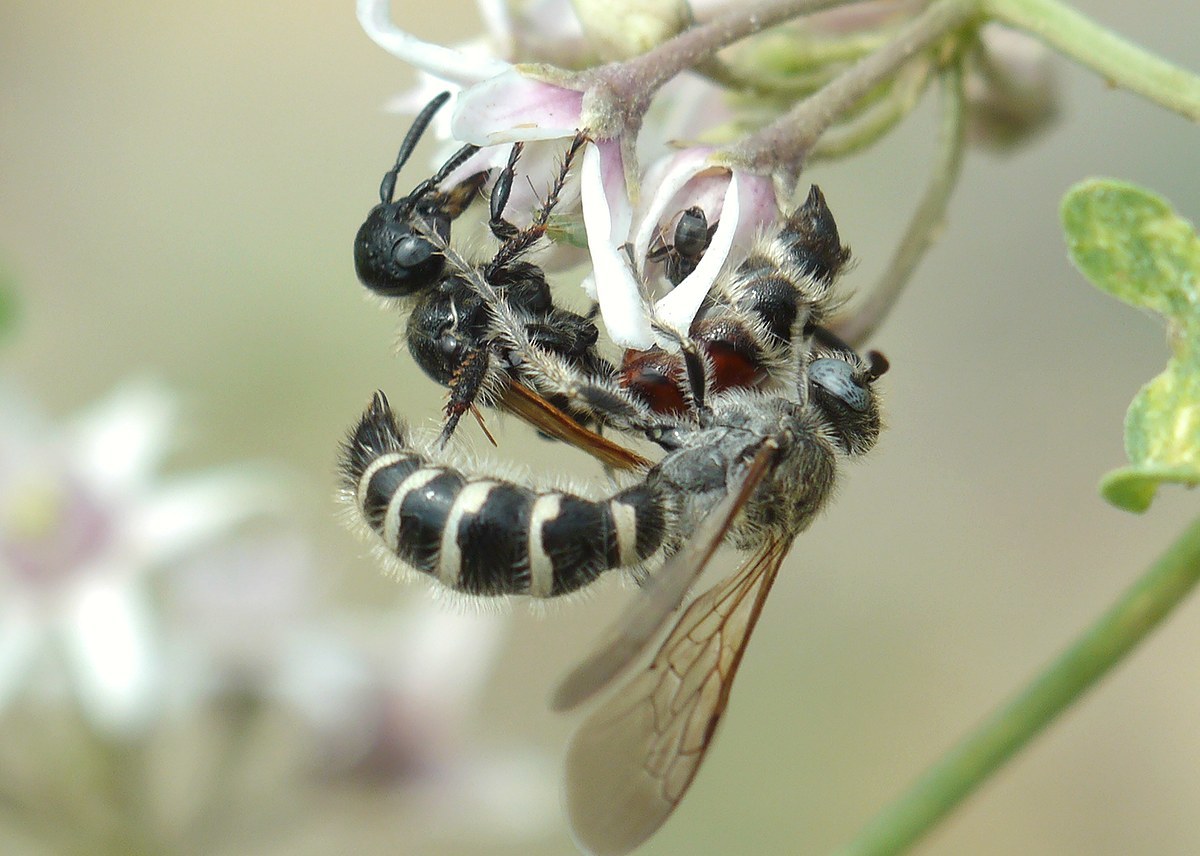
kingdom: Animalia
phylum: Arthropoda
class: Insecta
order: Hymenoptera
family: Scoliidae
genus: Colpa
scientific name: Colpa quinquecincta
